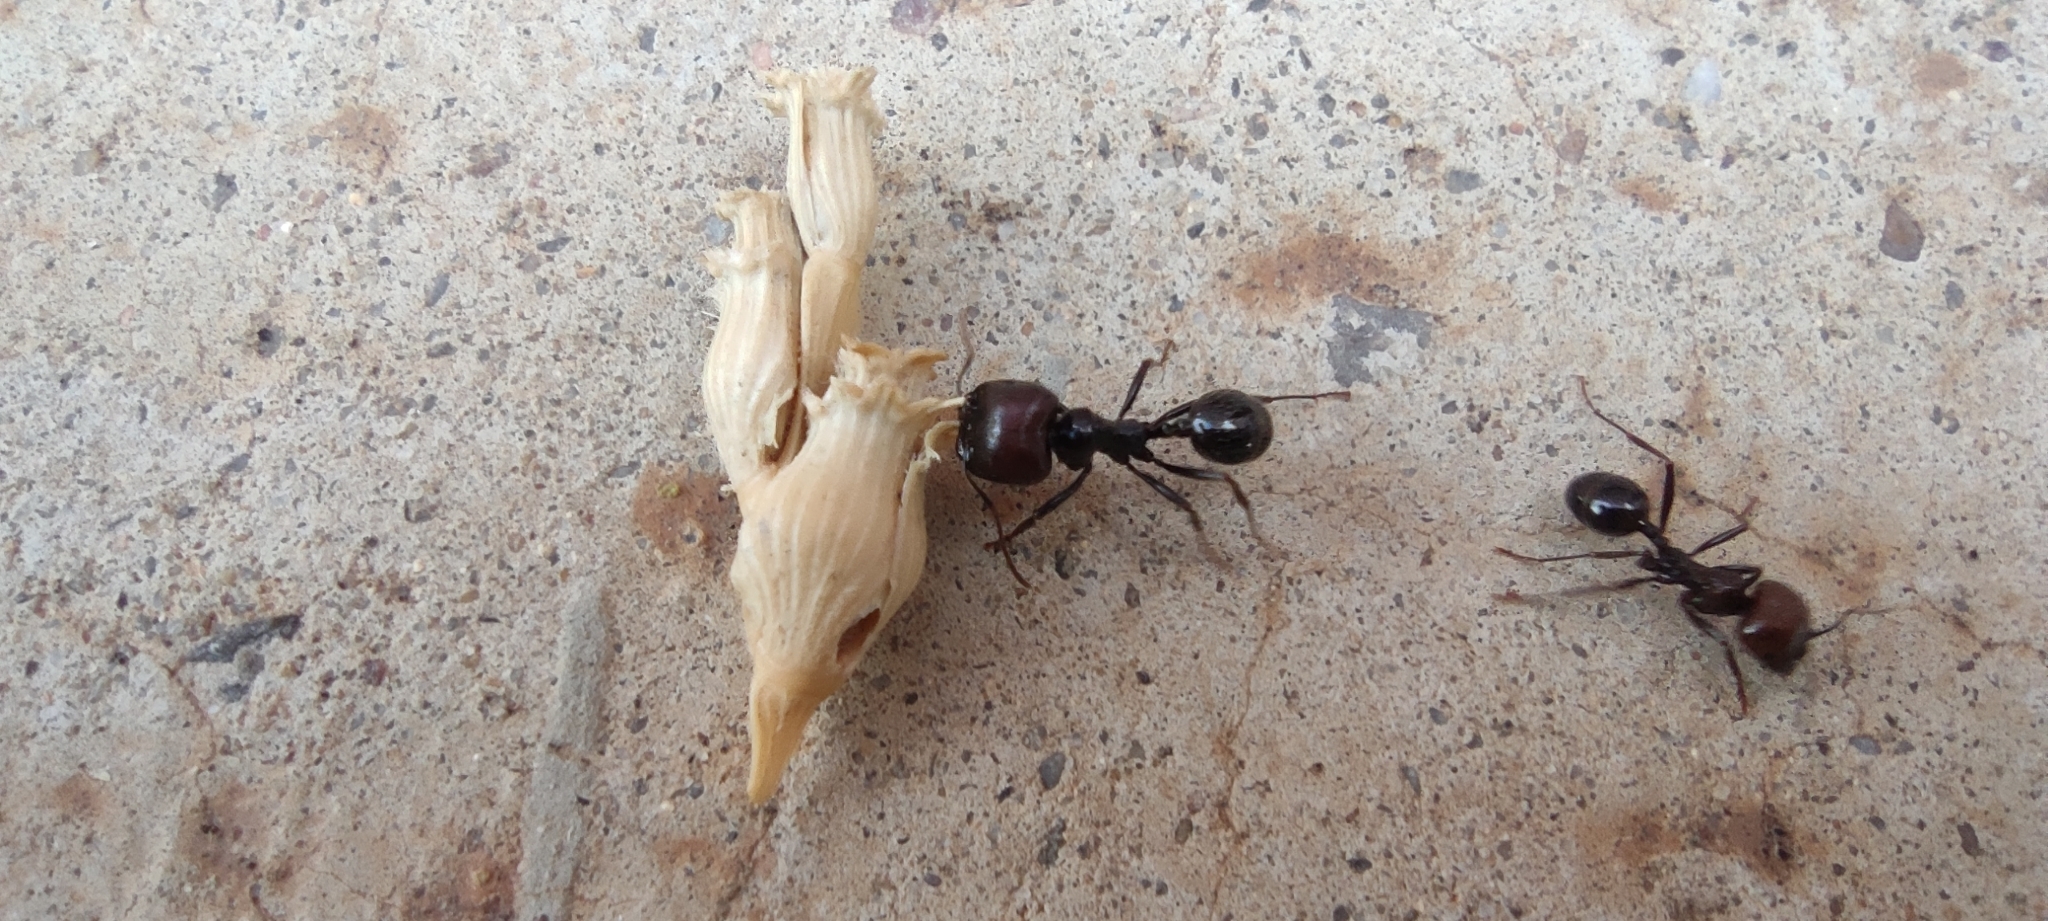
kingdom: Animalia
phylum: Arthropoda
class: Insecta
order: Hymenoptera
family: Formicidae
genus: Messor
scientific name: Messor barbarus
